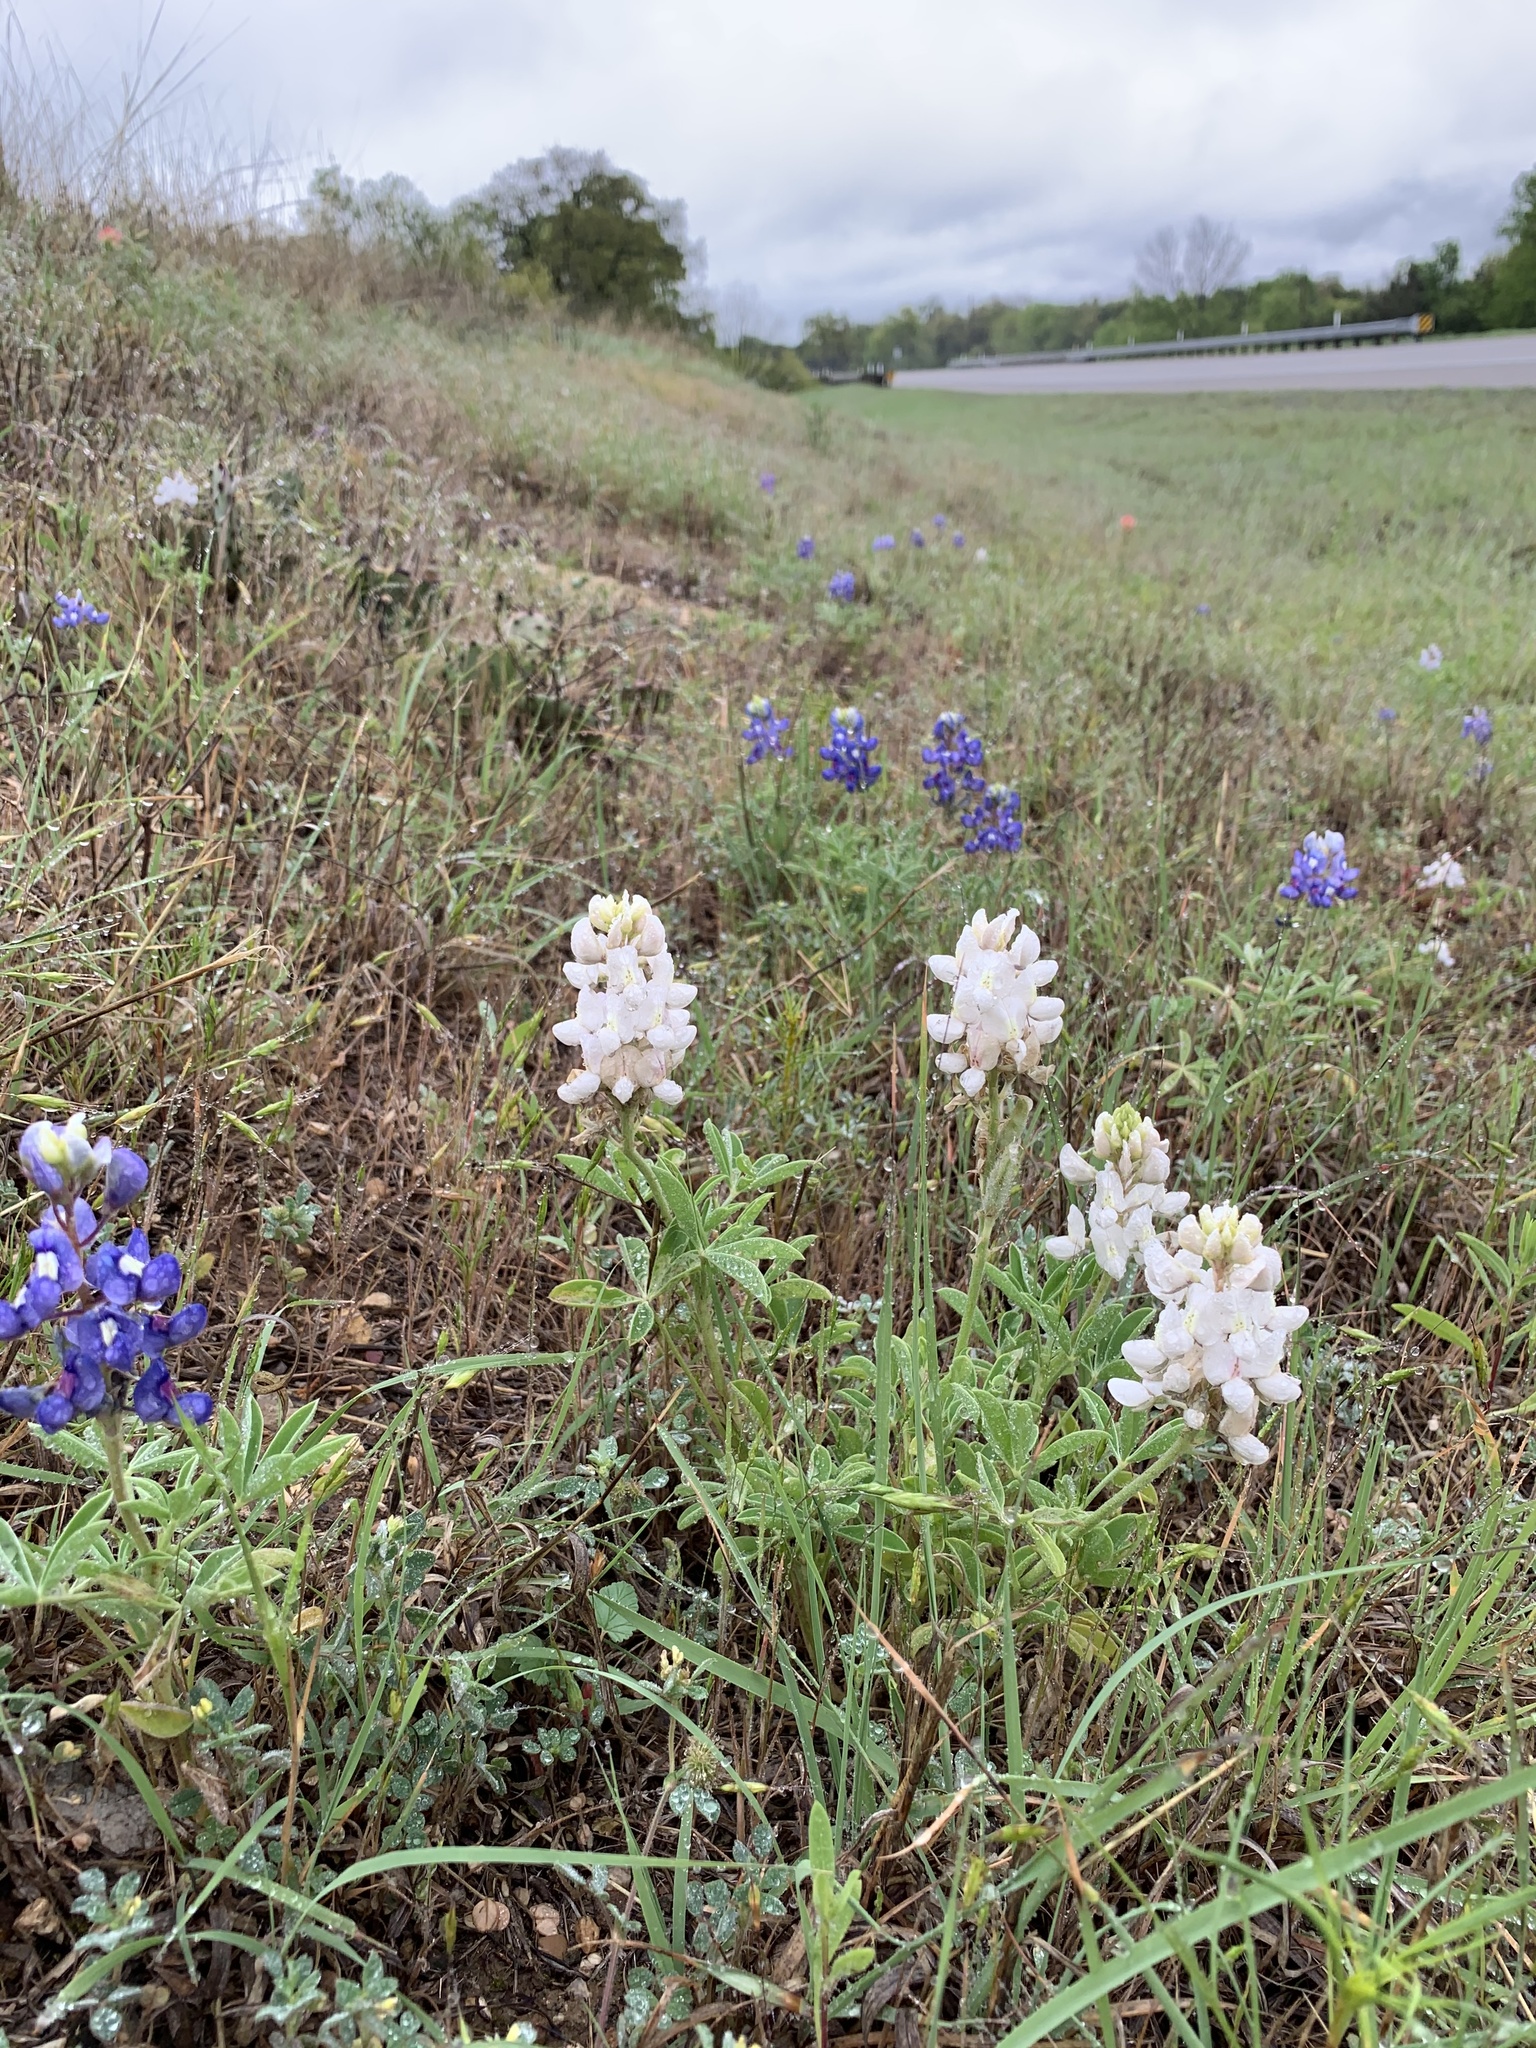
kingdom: Plantae
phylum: Tracheophyta
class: Magnoliopsida
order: Fabales
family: Fabaceae
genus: Lupinus
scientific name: Lupinus texensis
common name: Texas bluebonnet
